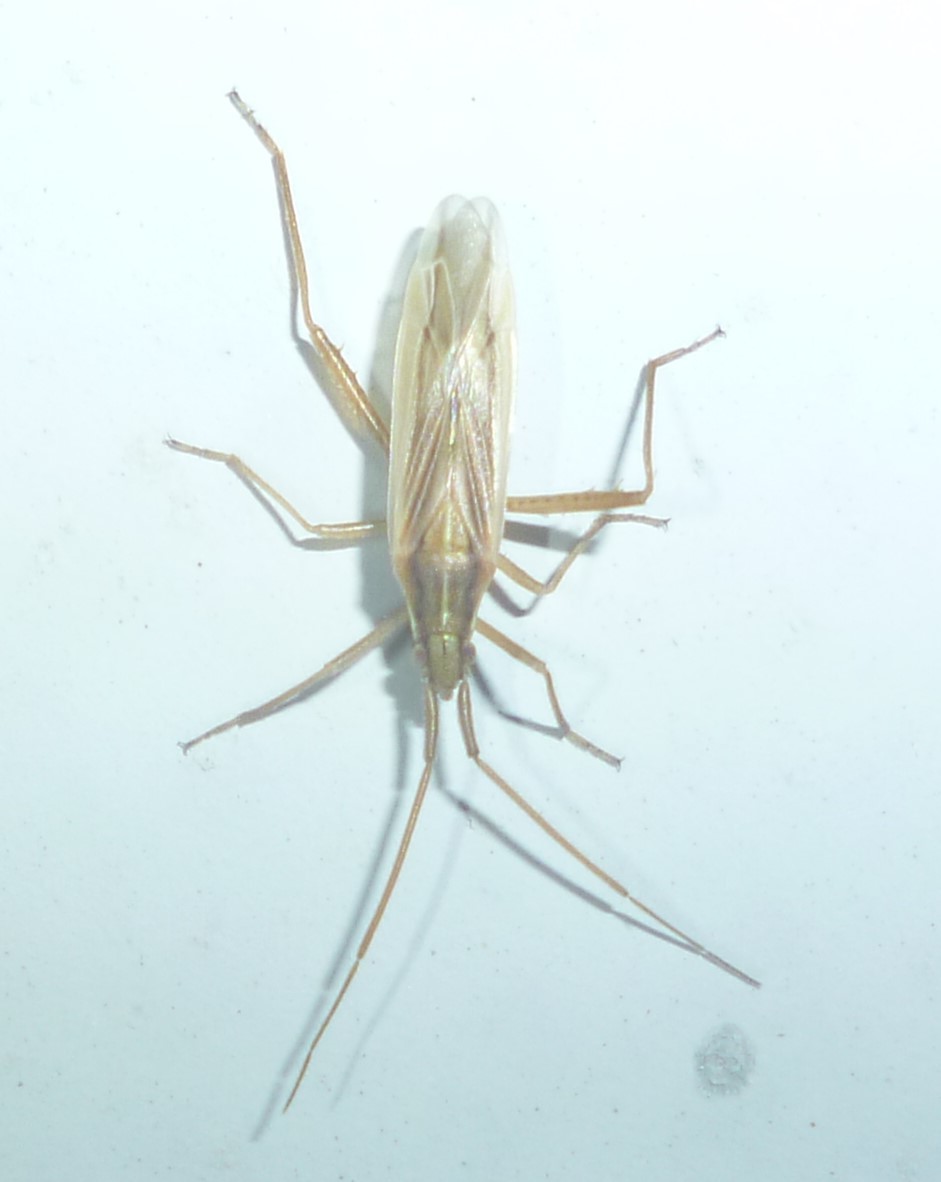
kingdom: Animalia
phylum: Arthropoda
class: Insecta
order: Hemiptera
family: Miridae
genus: Stenodema
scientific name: Stenodema trispinosa
